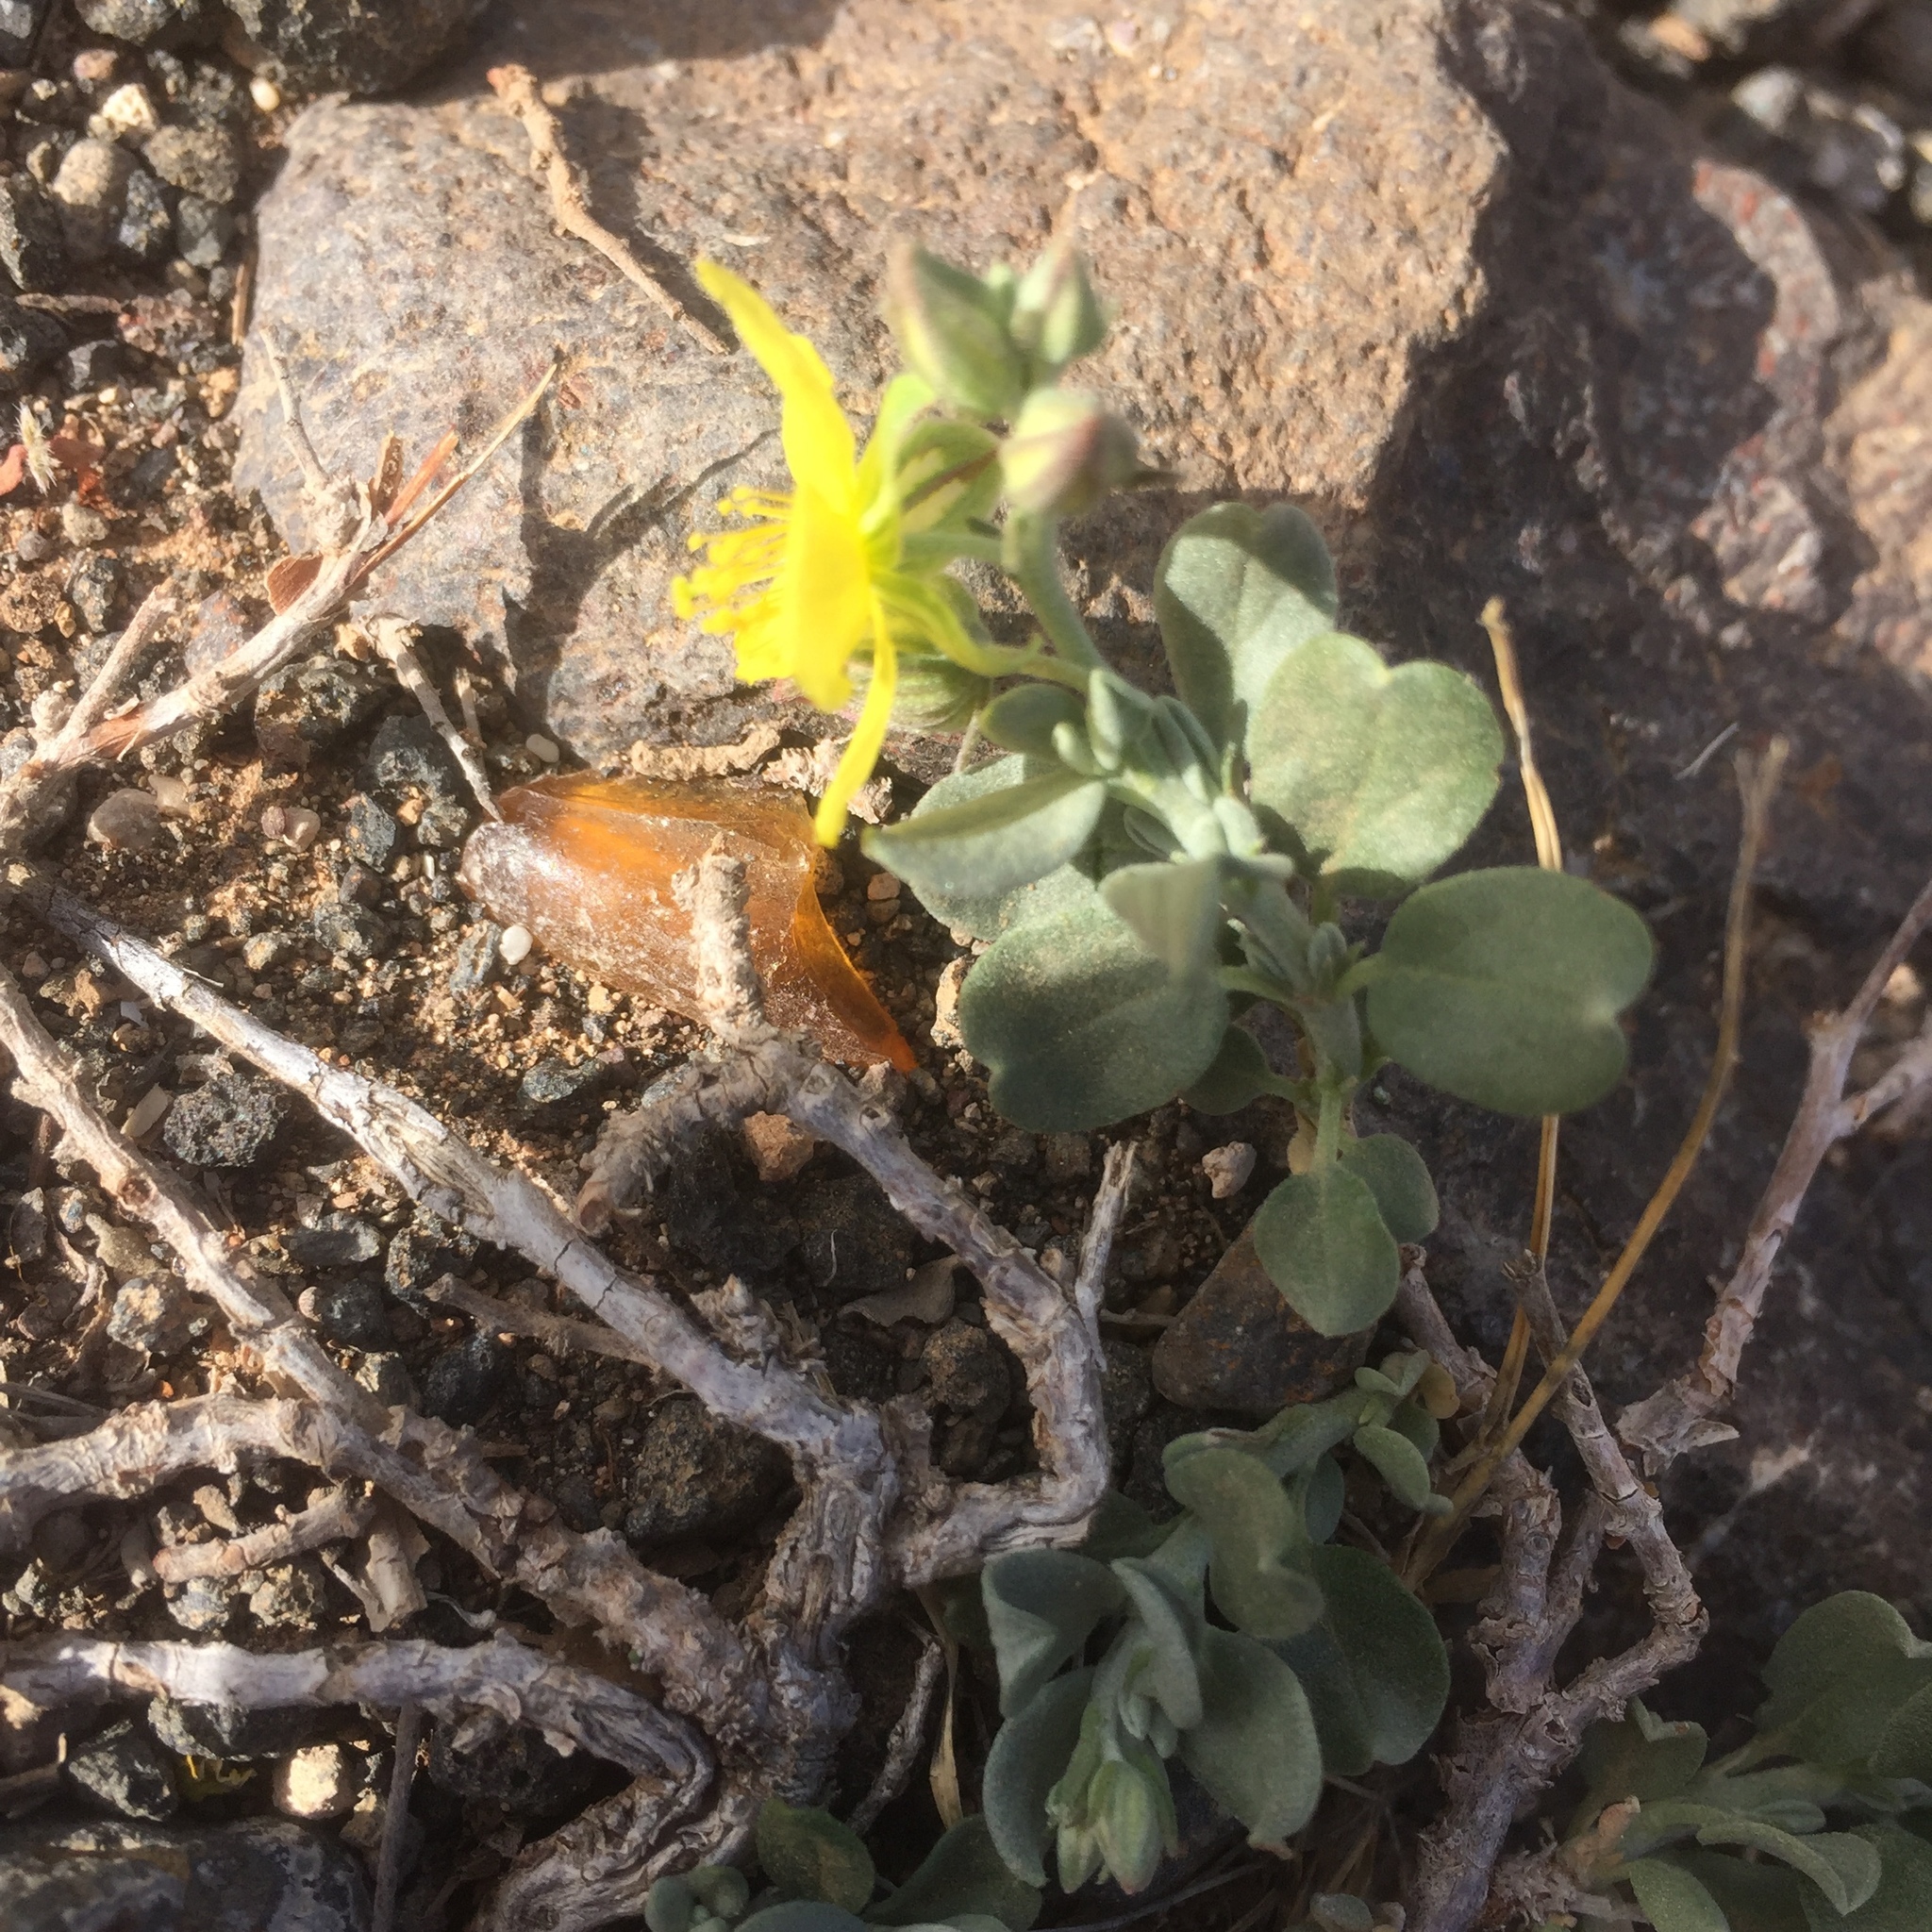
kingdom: Plantae
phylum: Tracheophyta
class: Magnoliopsida
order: Malvales
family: Cistaceae
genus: Helianthemum
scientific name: Helianthemum canariense
